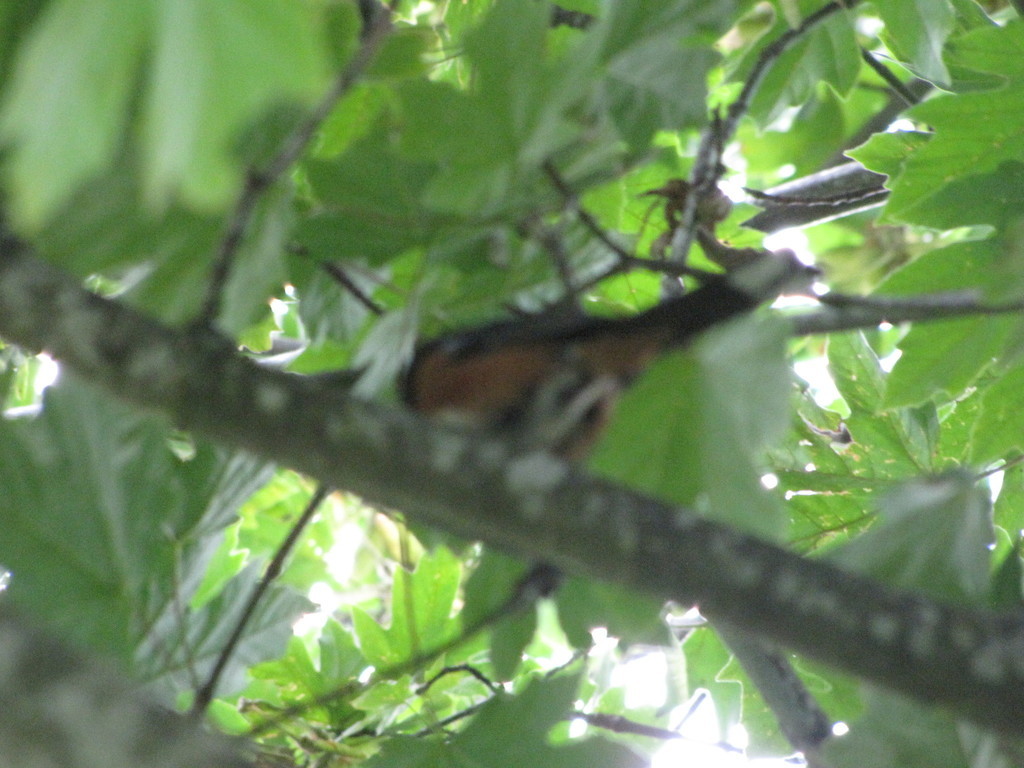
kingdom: Animalia
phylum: Chordata
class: Aves
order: Passeriformes
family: Passerellidae
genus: Pipilo
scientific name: Pipilo maculatus
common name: Spotted towhee
